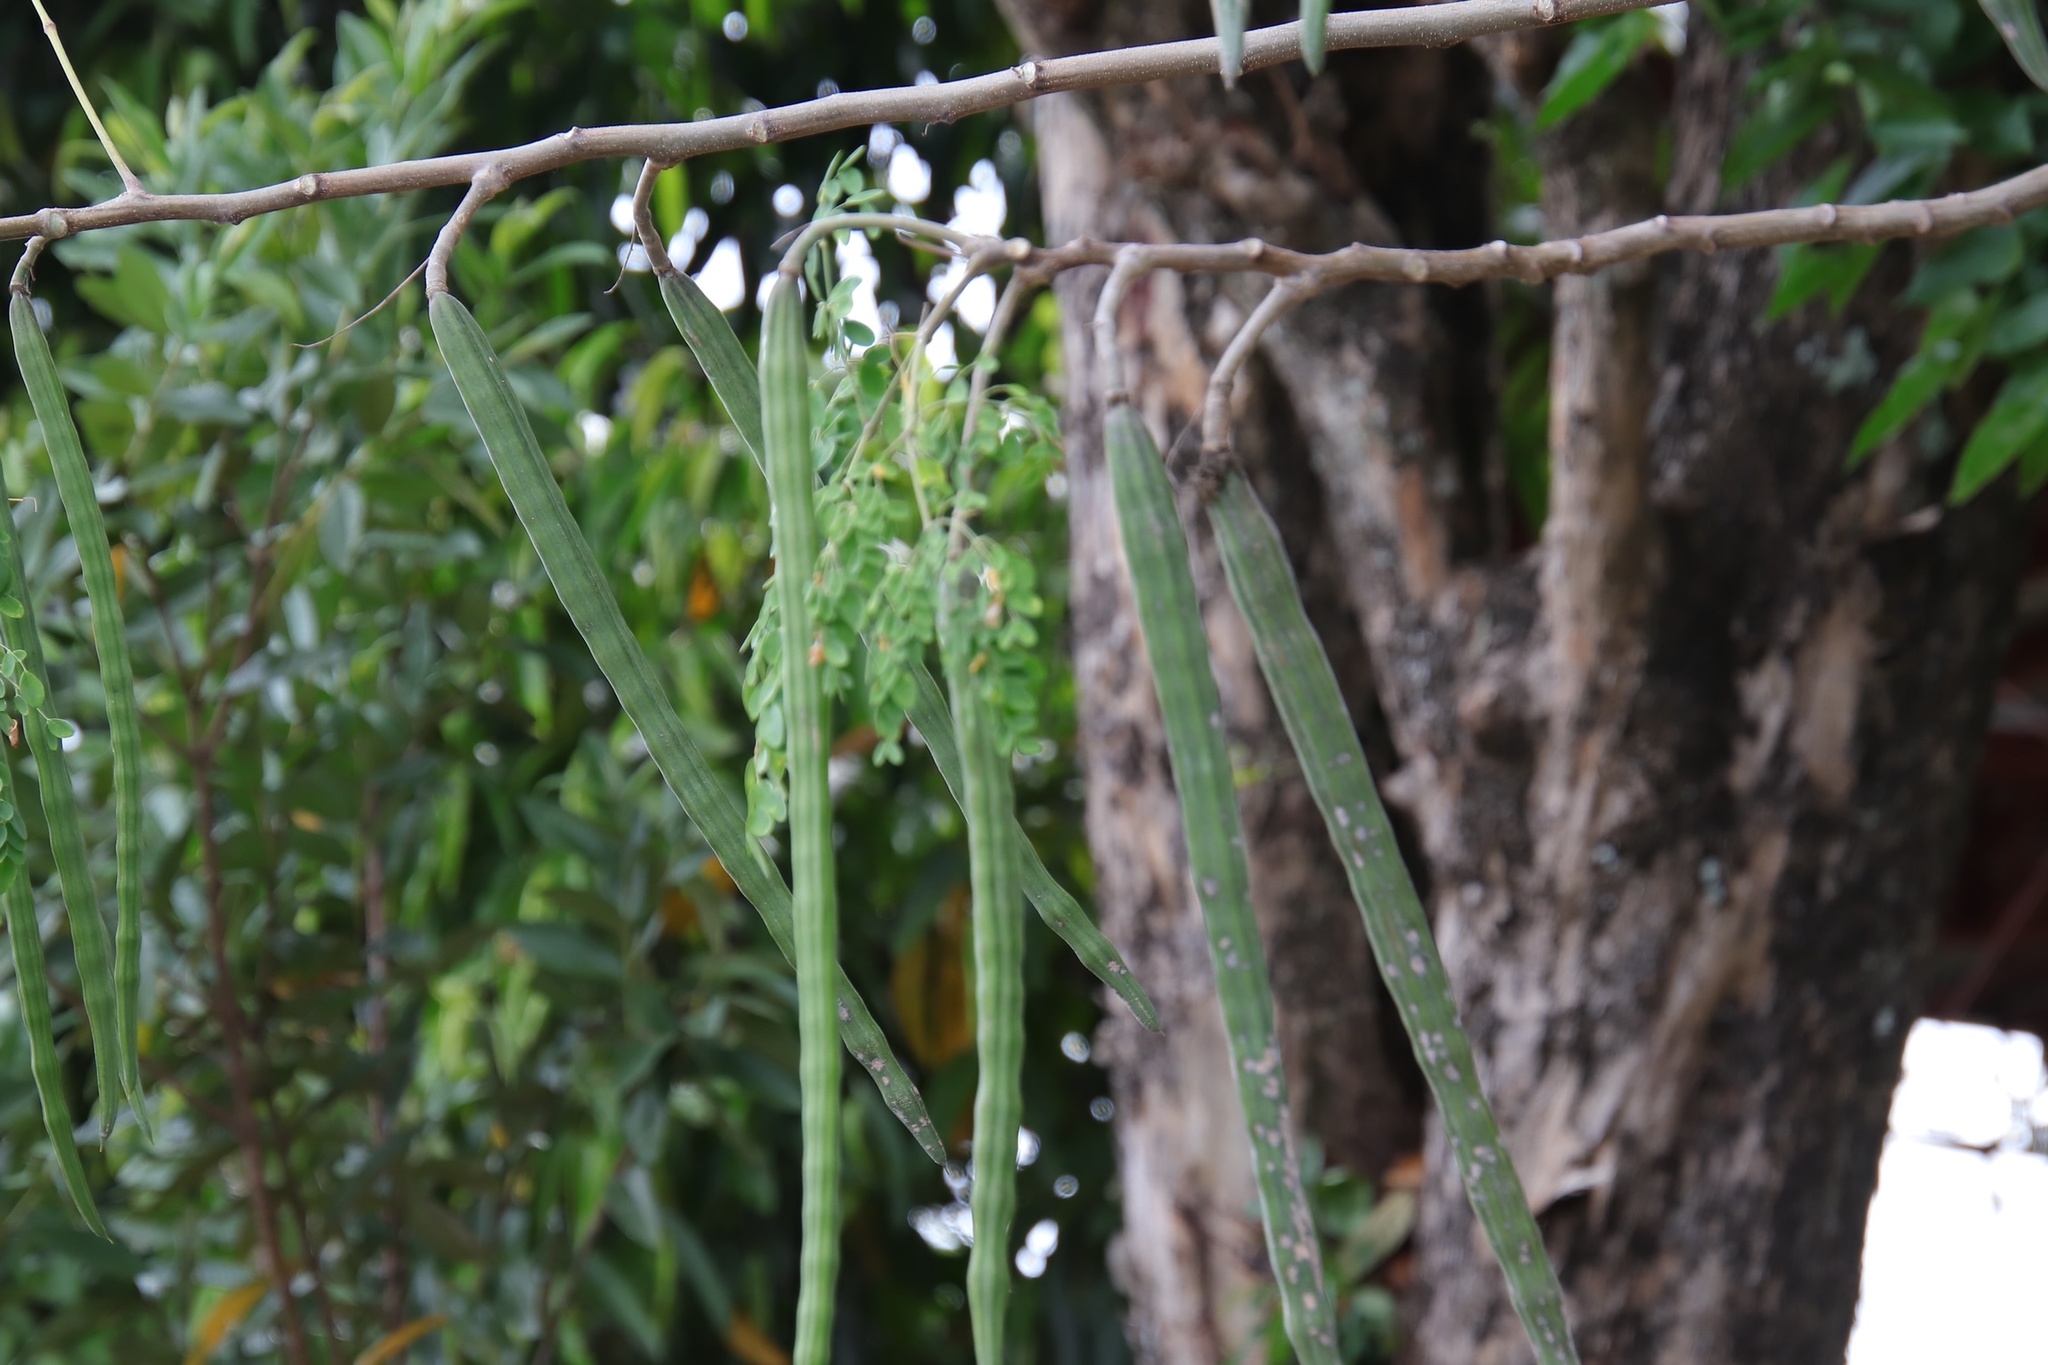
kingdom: Plantae
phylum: Tracheophyta
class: Magnoliopsida
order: Brassicales
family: Moringaceae
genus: Moringa
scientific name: Moringa oleifera
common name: Horseradish-tree
